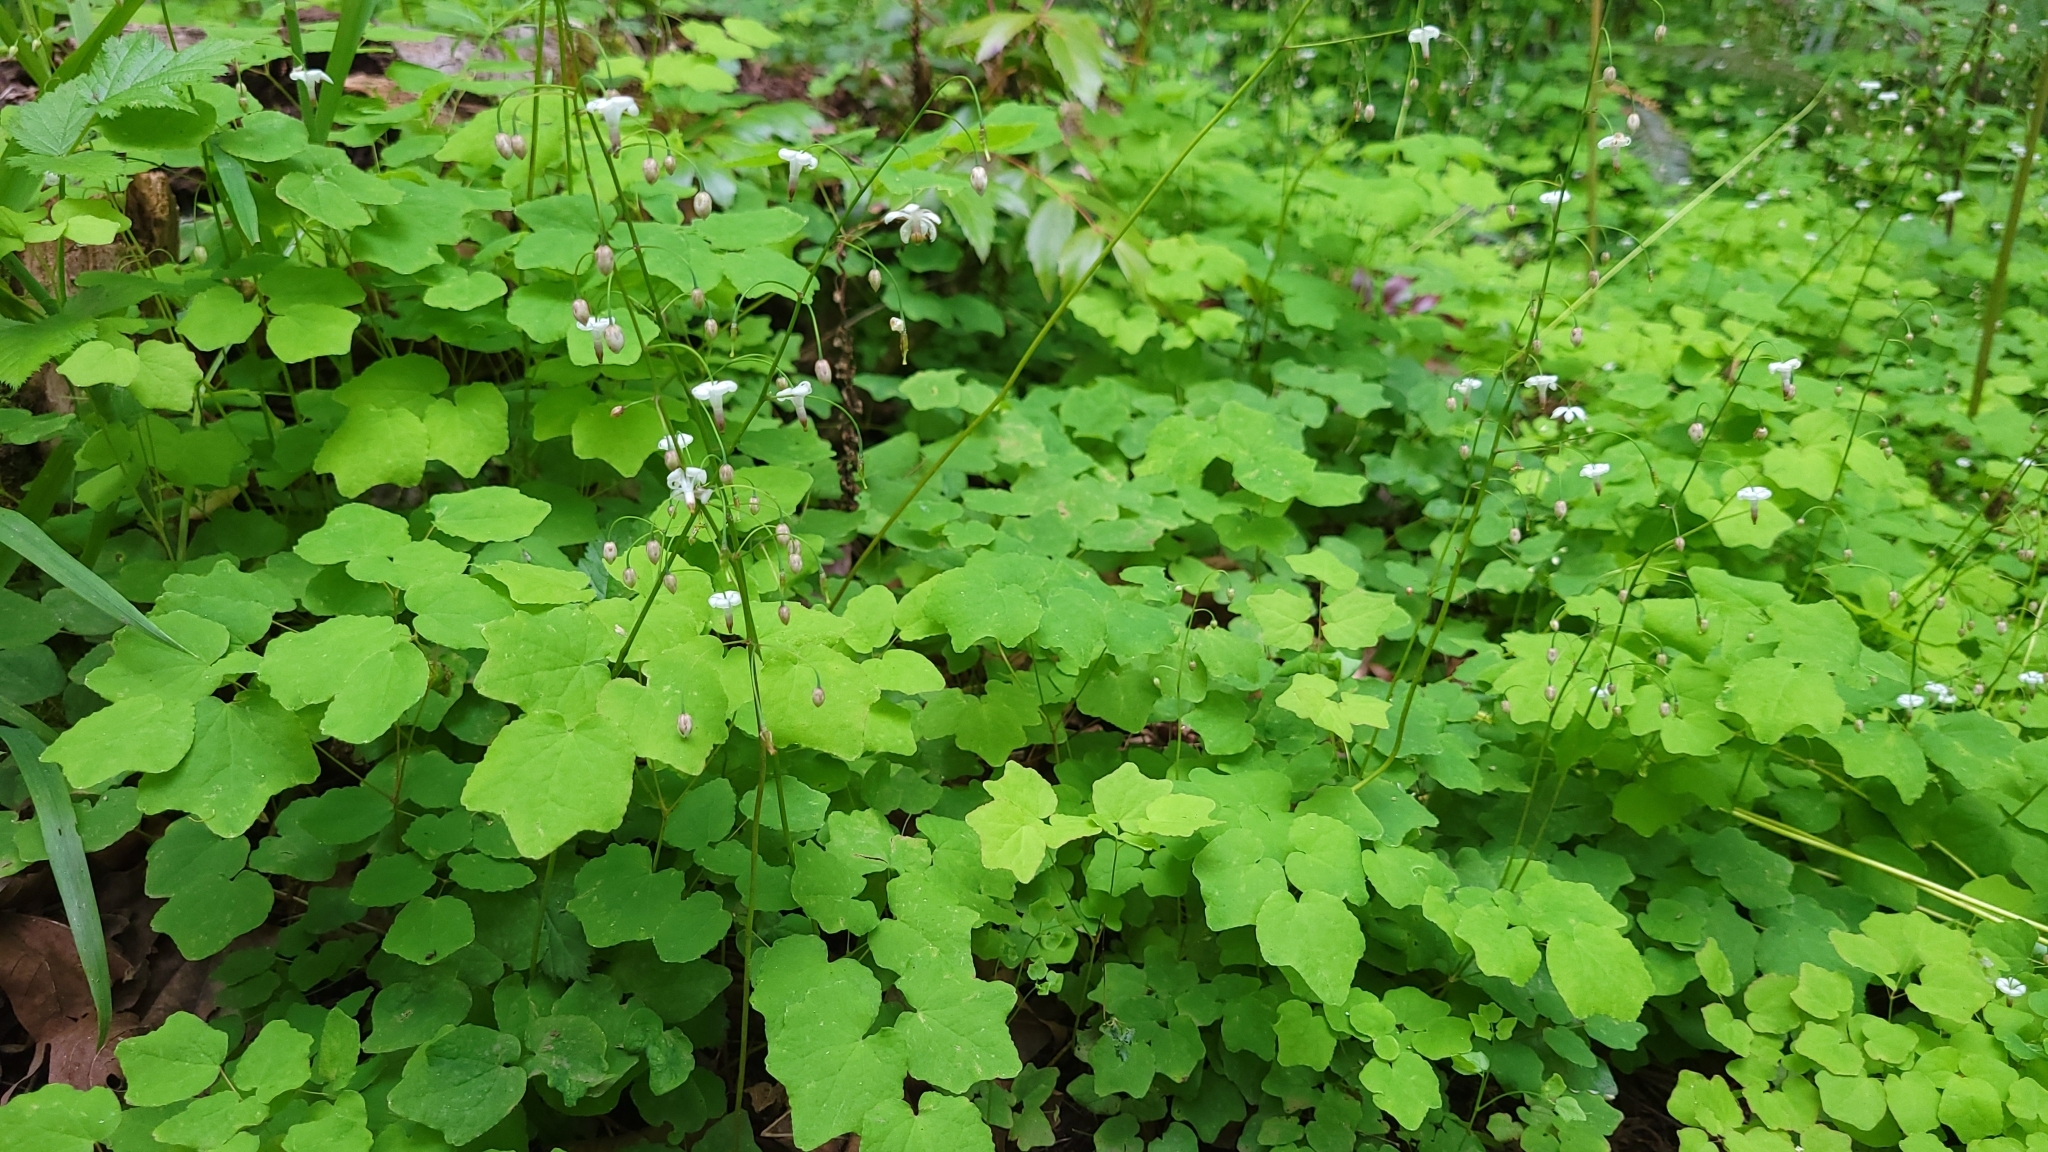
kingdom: Plantae
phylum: Tracheophyta
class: Magnoliopsida
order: Ranunculales
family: Berberidaceae
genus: Vancouveria
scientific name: Vancouveria hexandra
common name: Northern inside-out-flower
